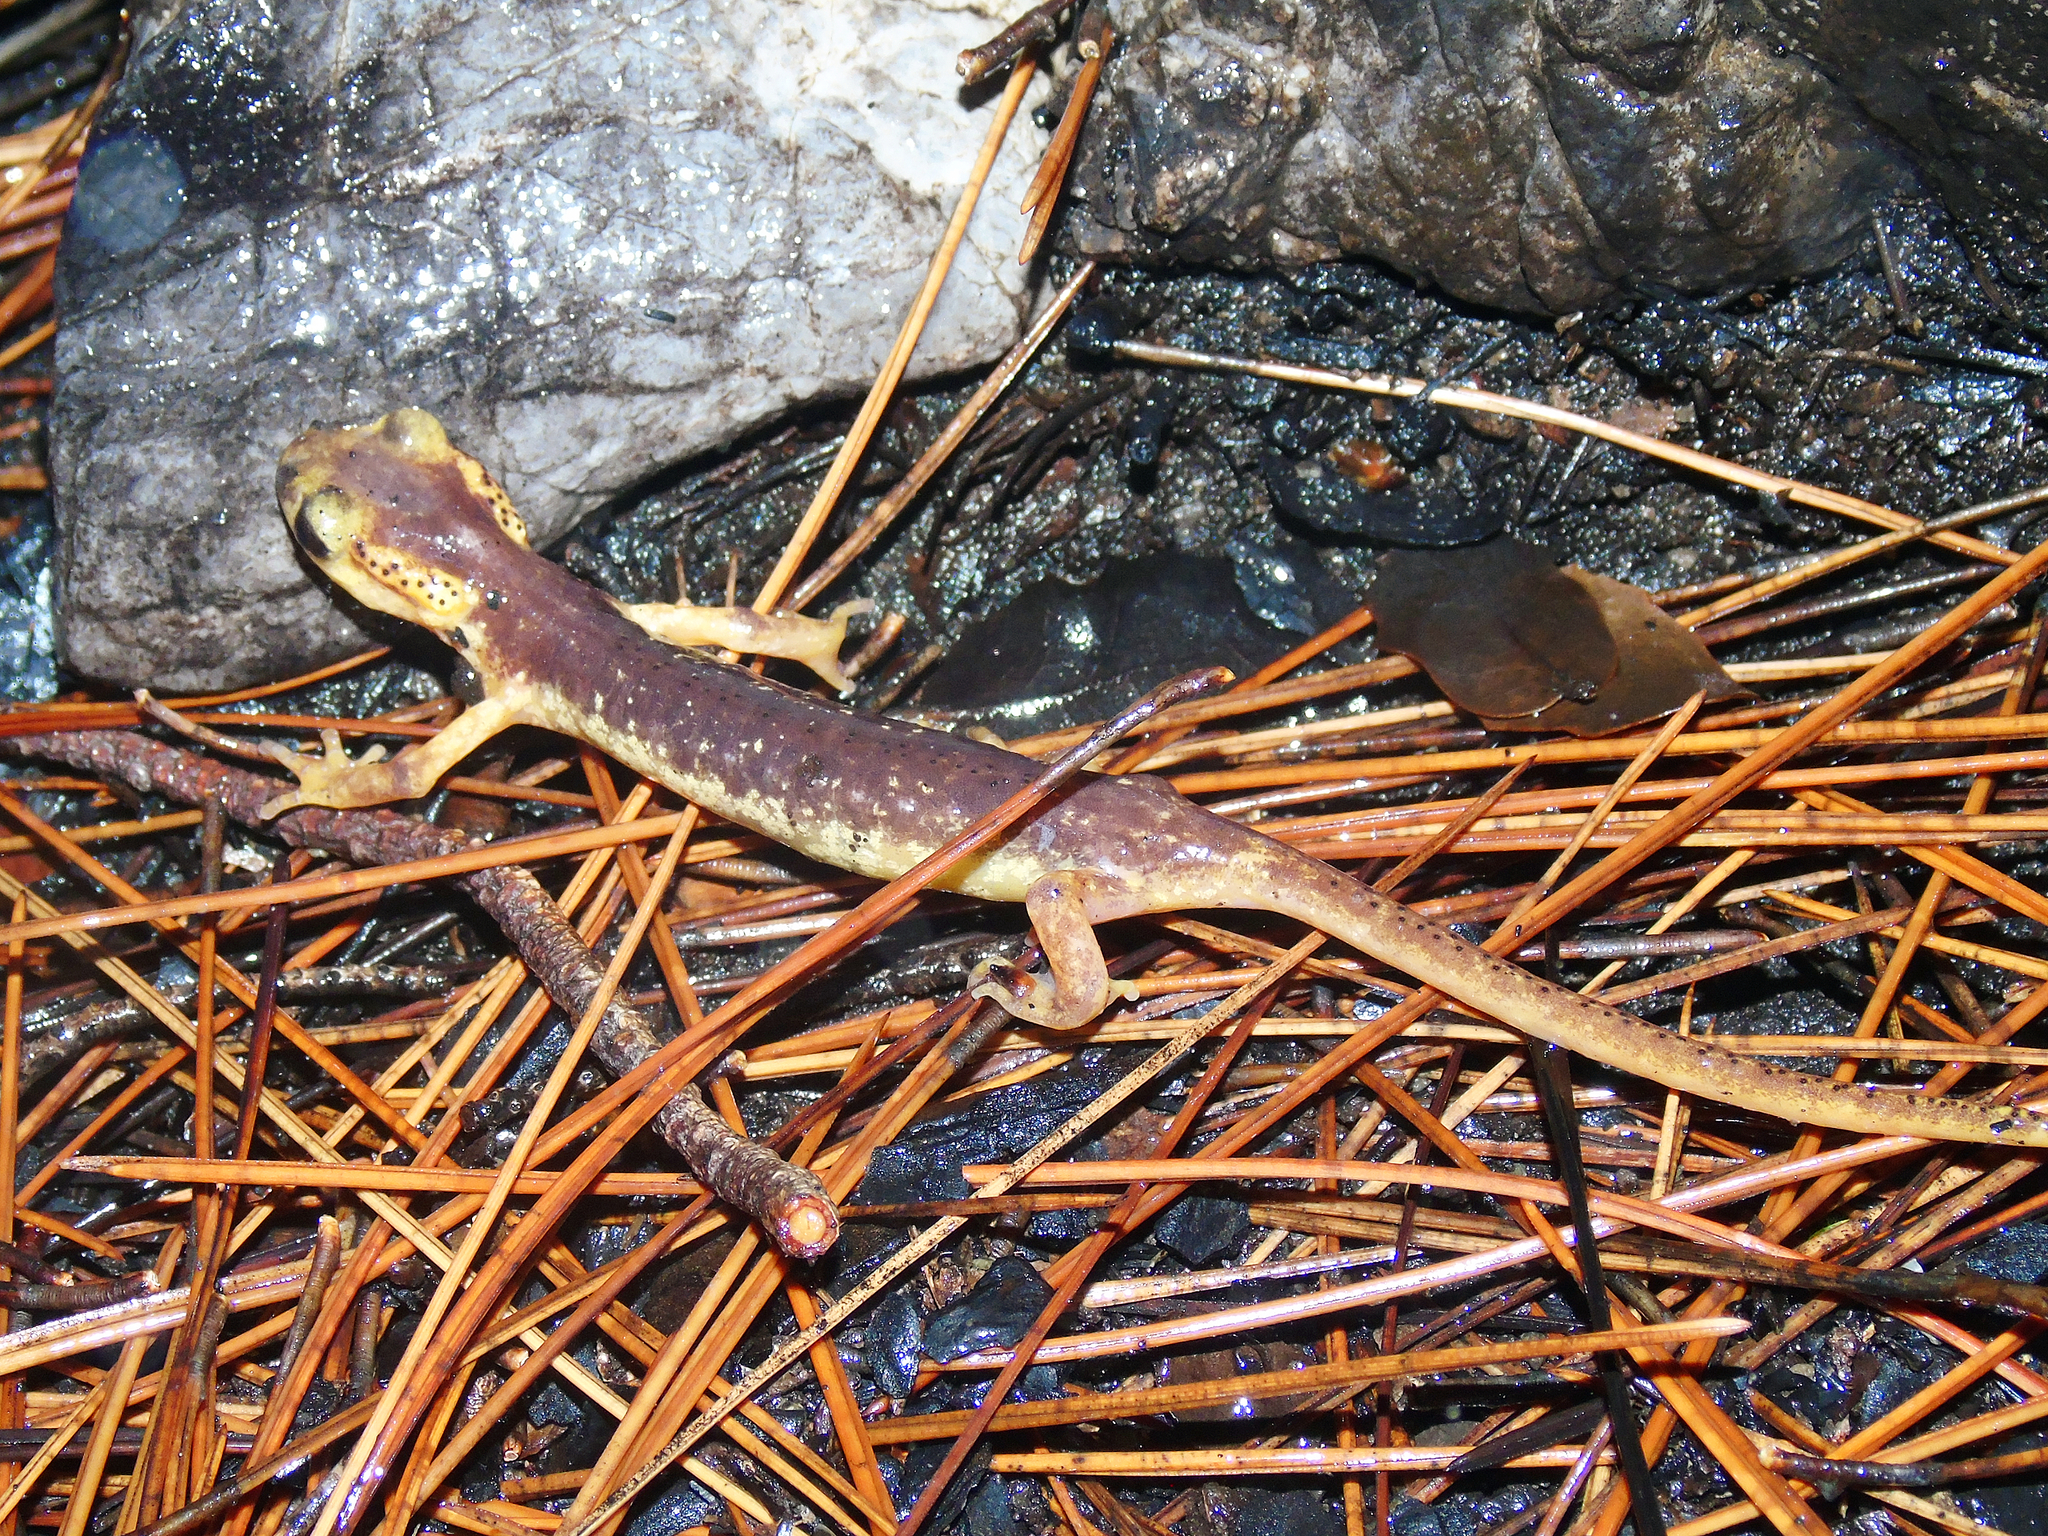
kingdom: Animalia
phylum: Chordata
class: Amphibia
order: Caudata
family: Salamandridae
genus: Lyciasalamandra
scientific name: Lyciasalamandra flavimembris
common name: Maramaris salamander
